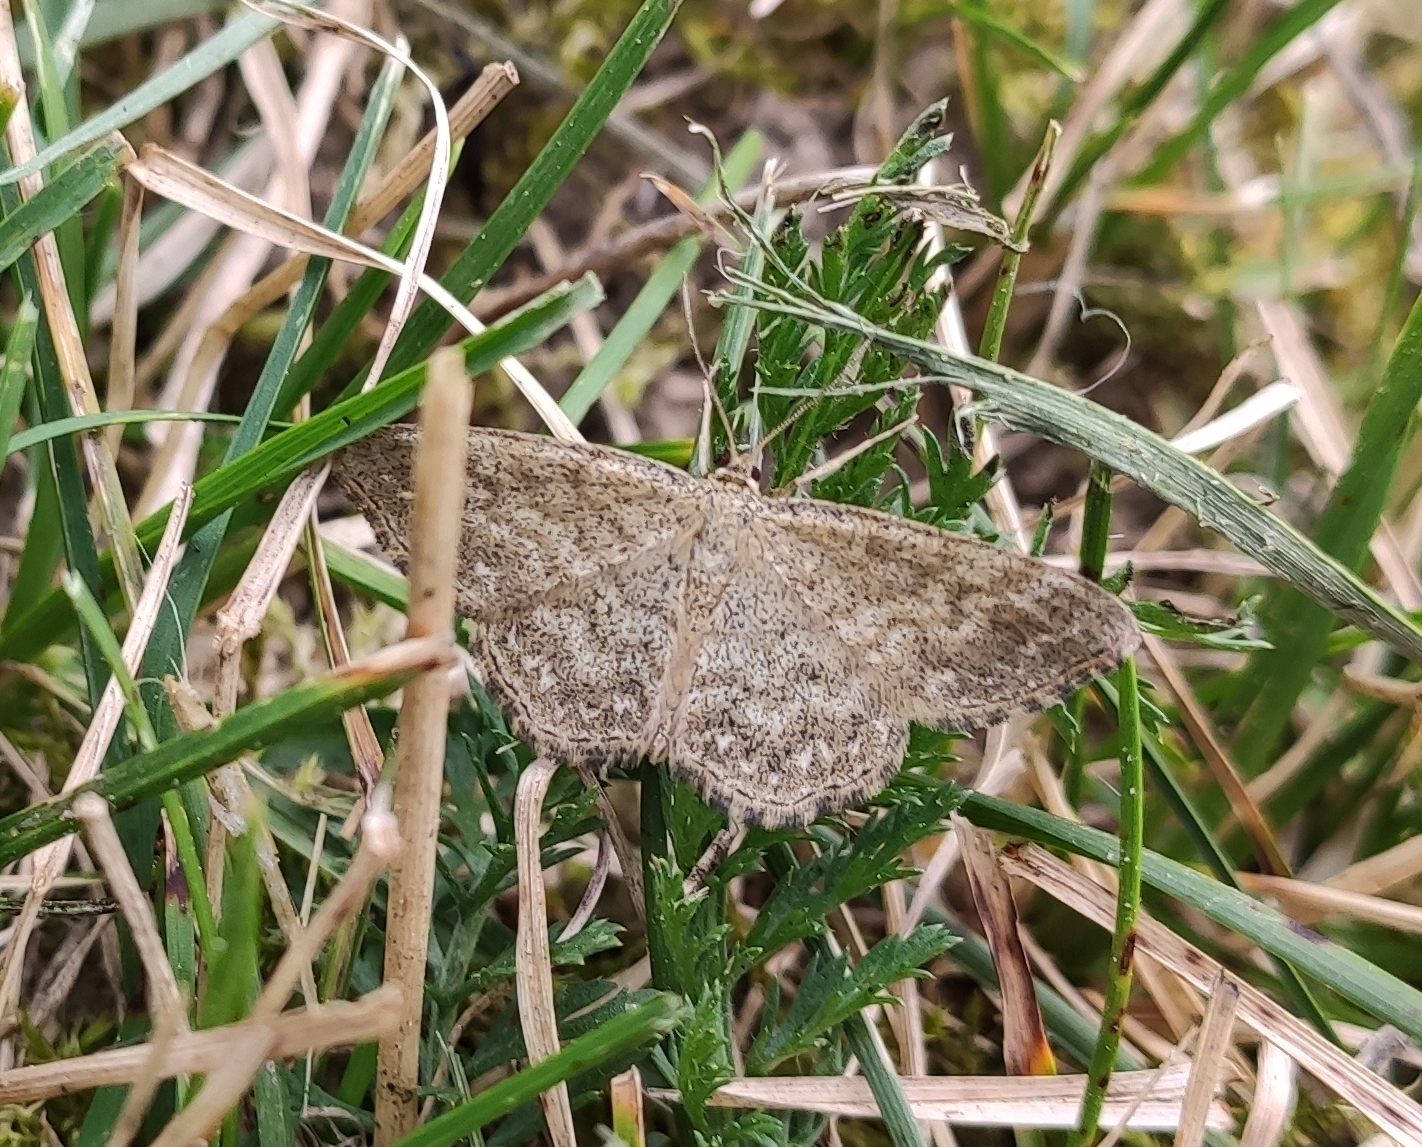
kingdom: Animalia
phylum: Arthropoda
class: Insecta
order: Lepidoptera
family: Geometridae
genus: Scopula
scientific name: Scopula immorata
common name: Lewes wave
